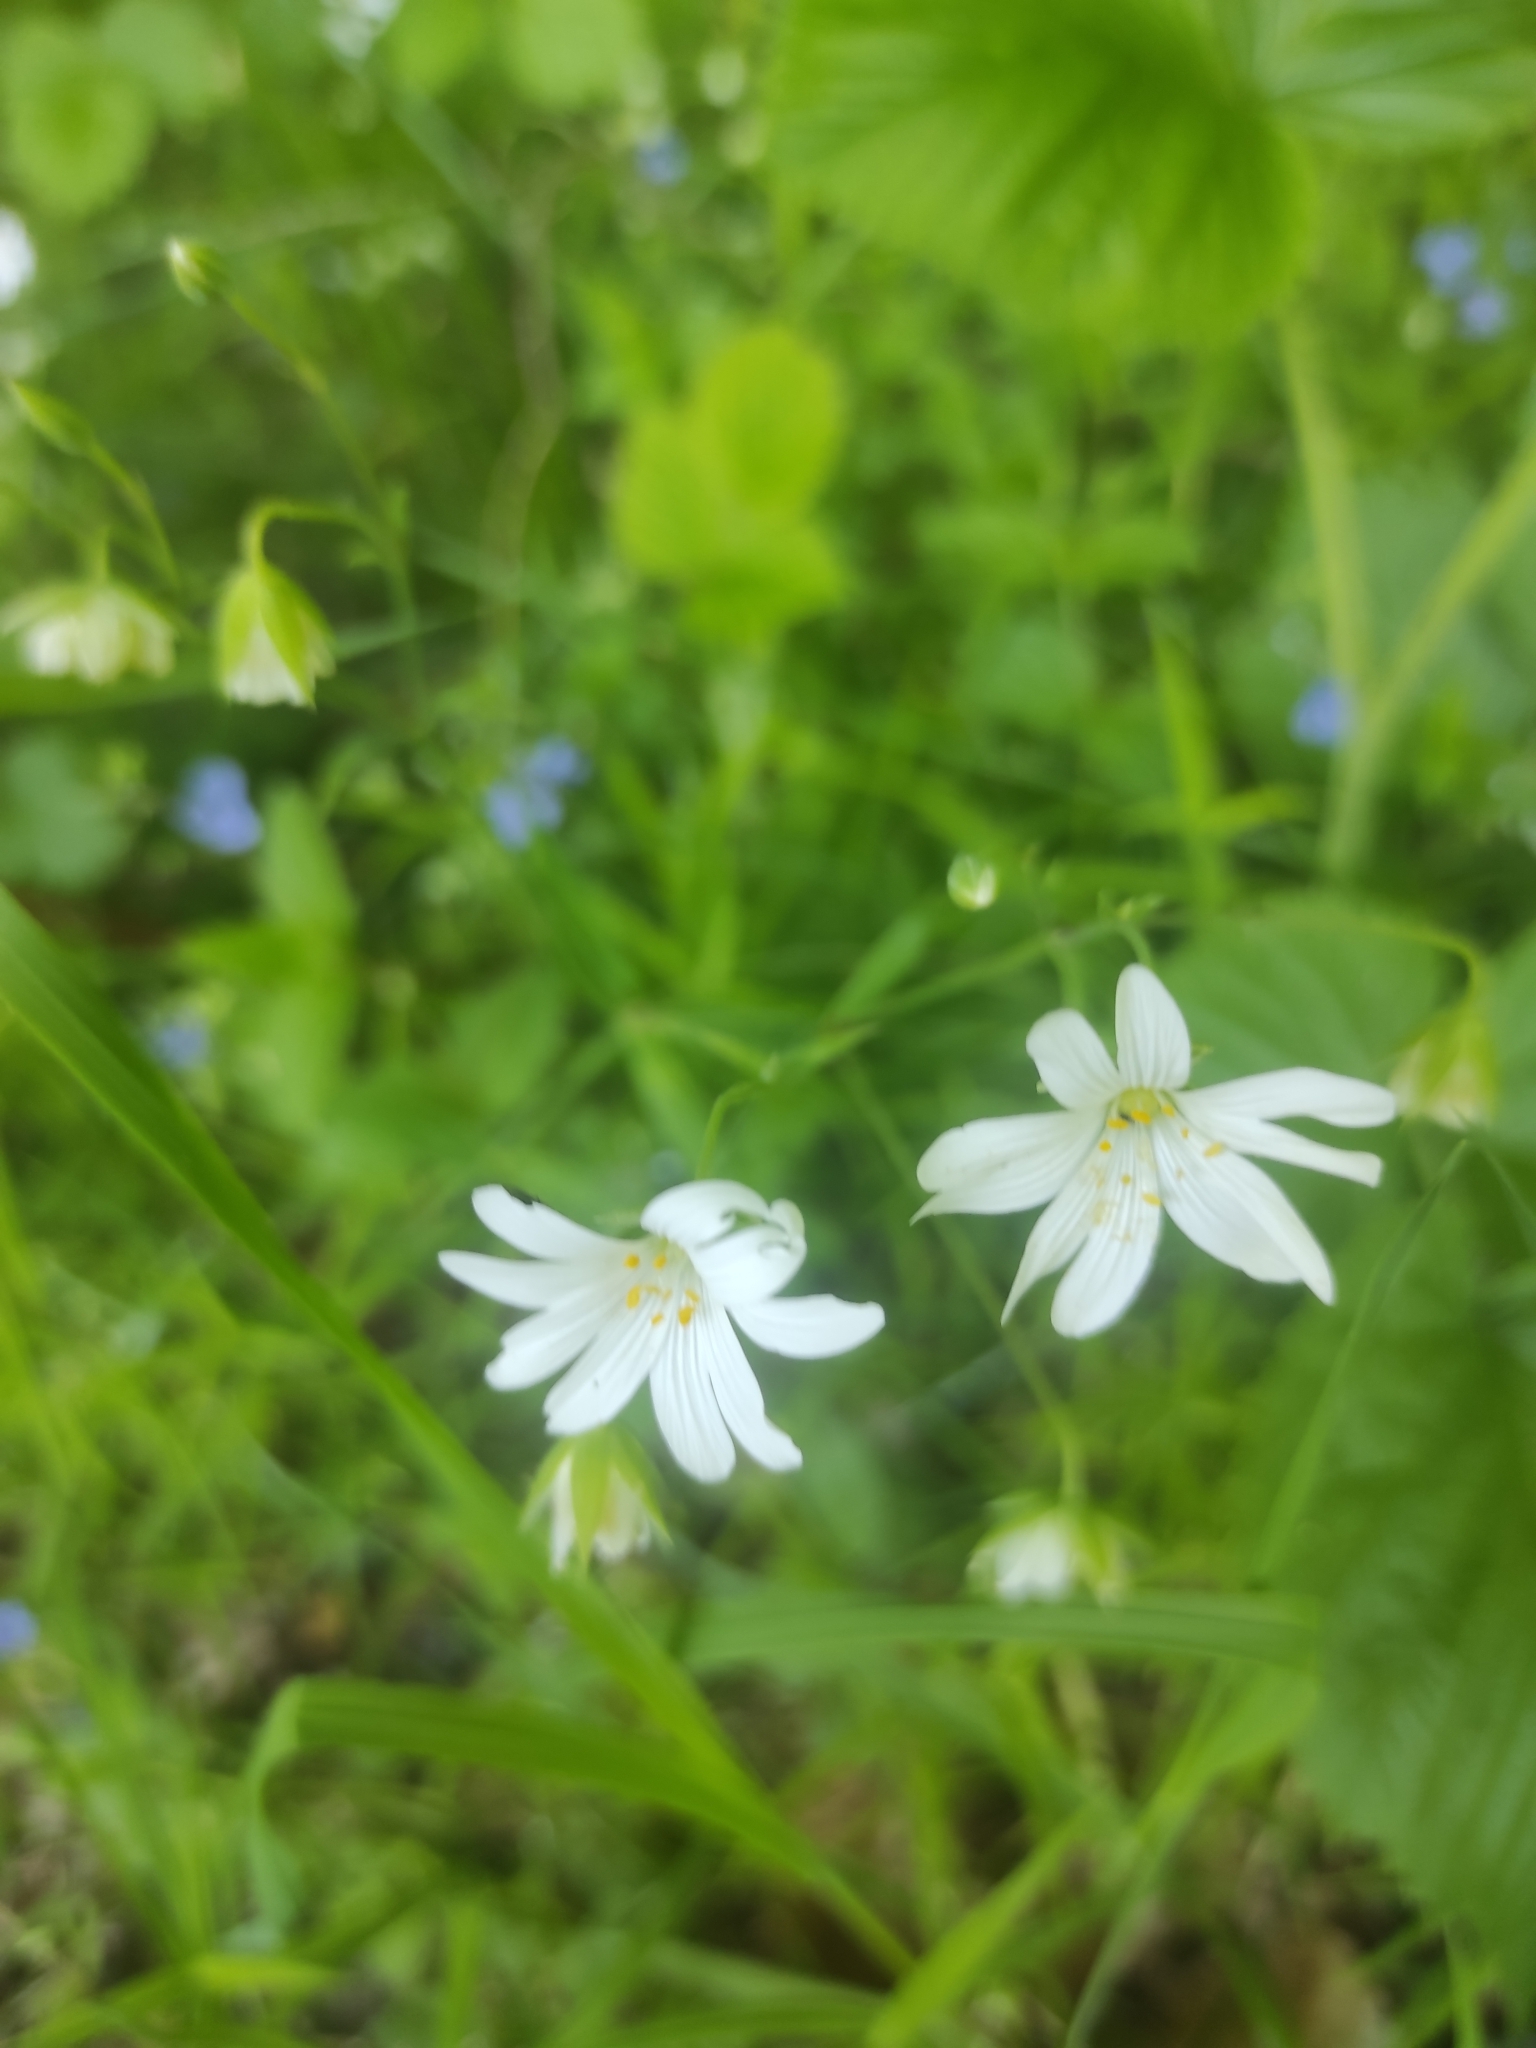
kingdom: Plantae
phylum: Tracheophyta
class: Magnoliopsida
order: Caryophyllales
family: Caryophyllaceae
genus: Rabelera
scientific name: Rabelera holostea
